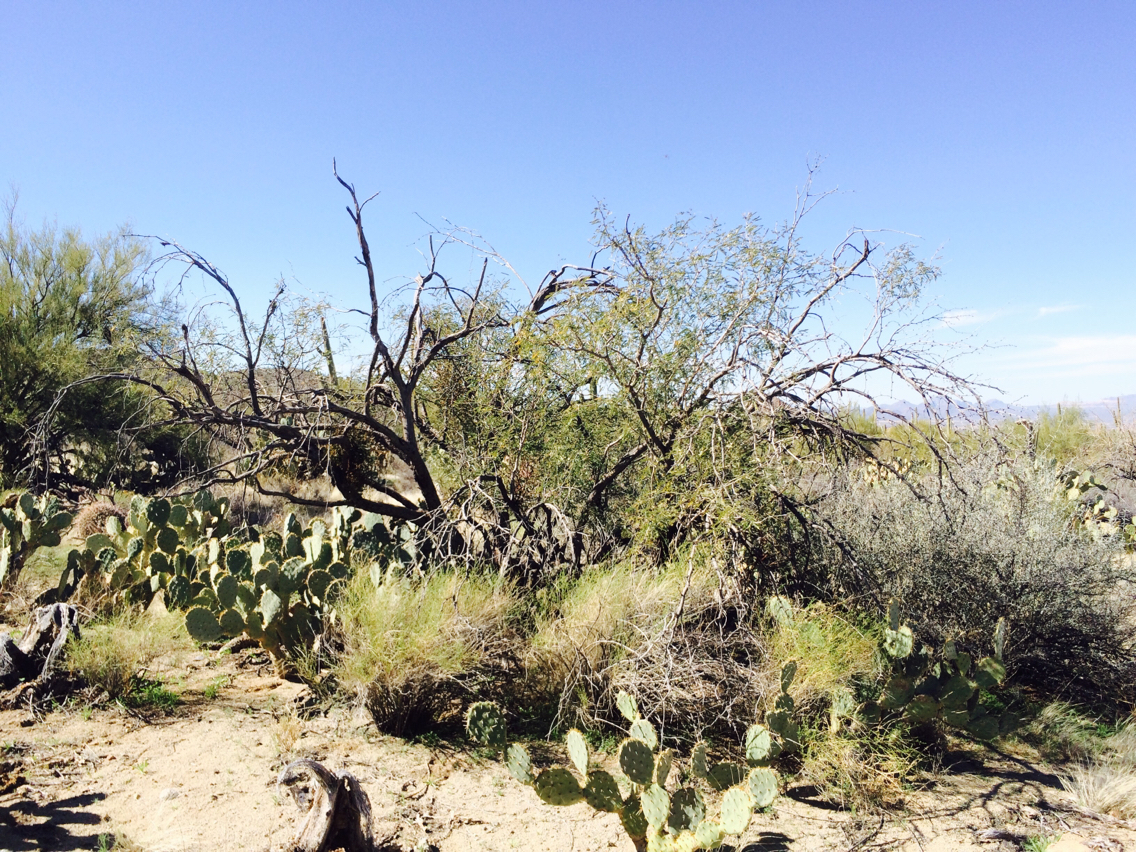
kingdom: Plantae
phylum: Tracheophyta
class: Magnoliopsida
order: Fabales
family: Fabaceae
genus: Prosopis
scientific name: Prosopis velutina
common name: Velvet mesquite
